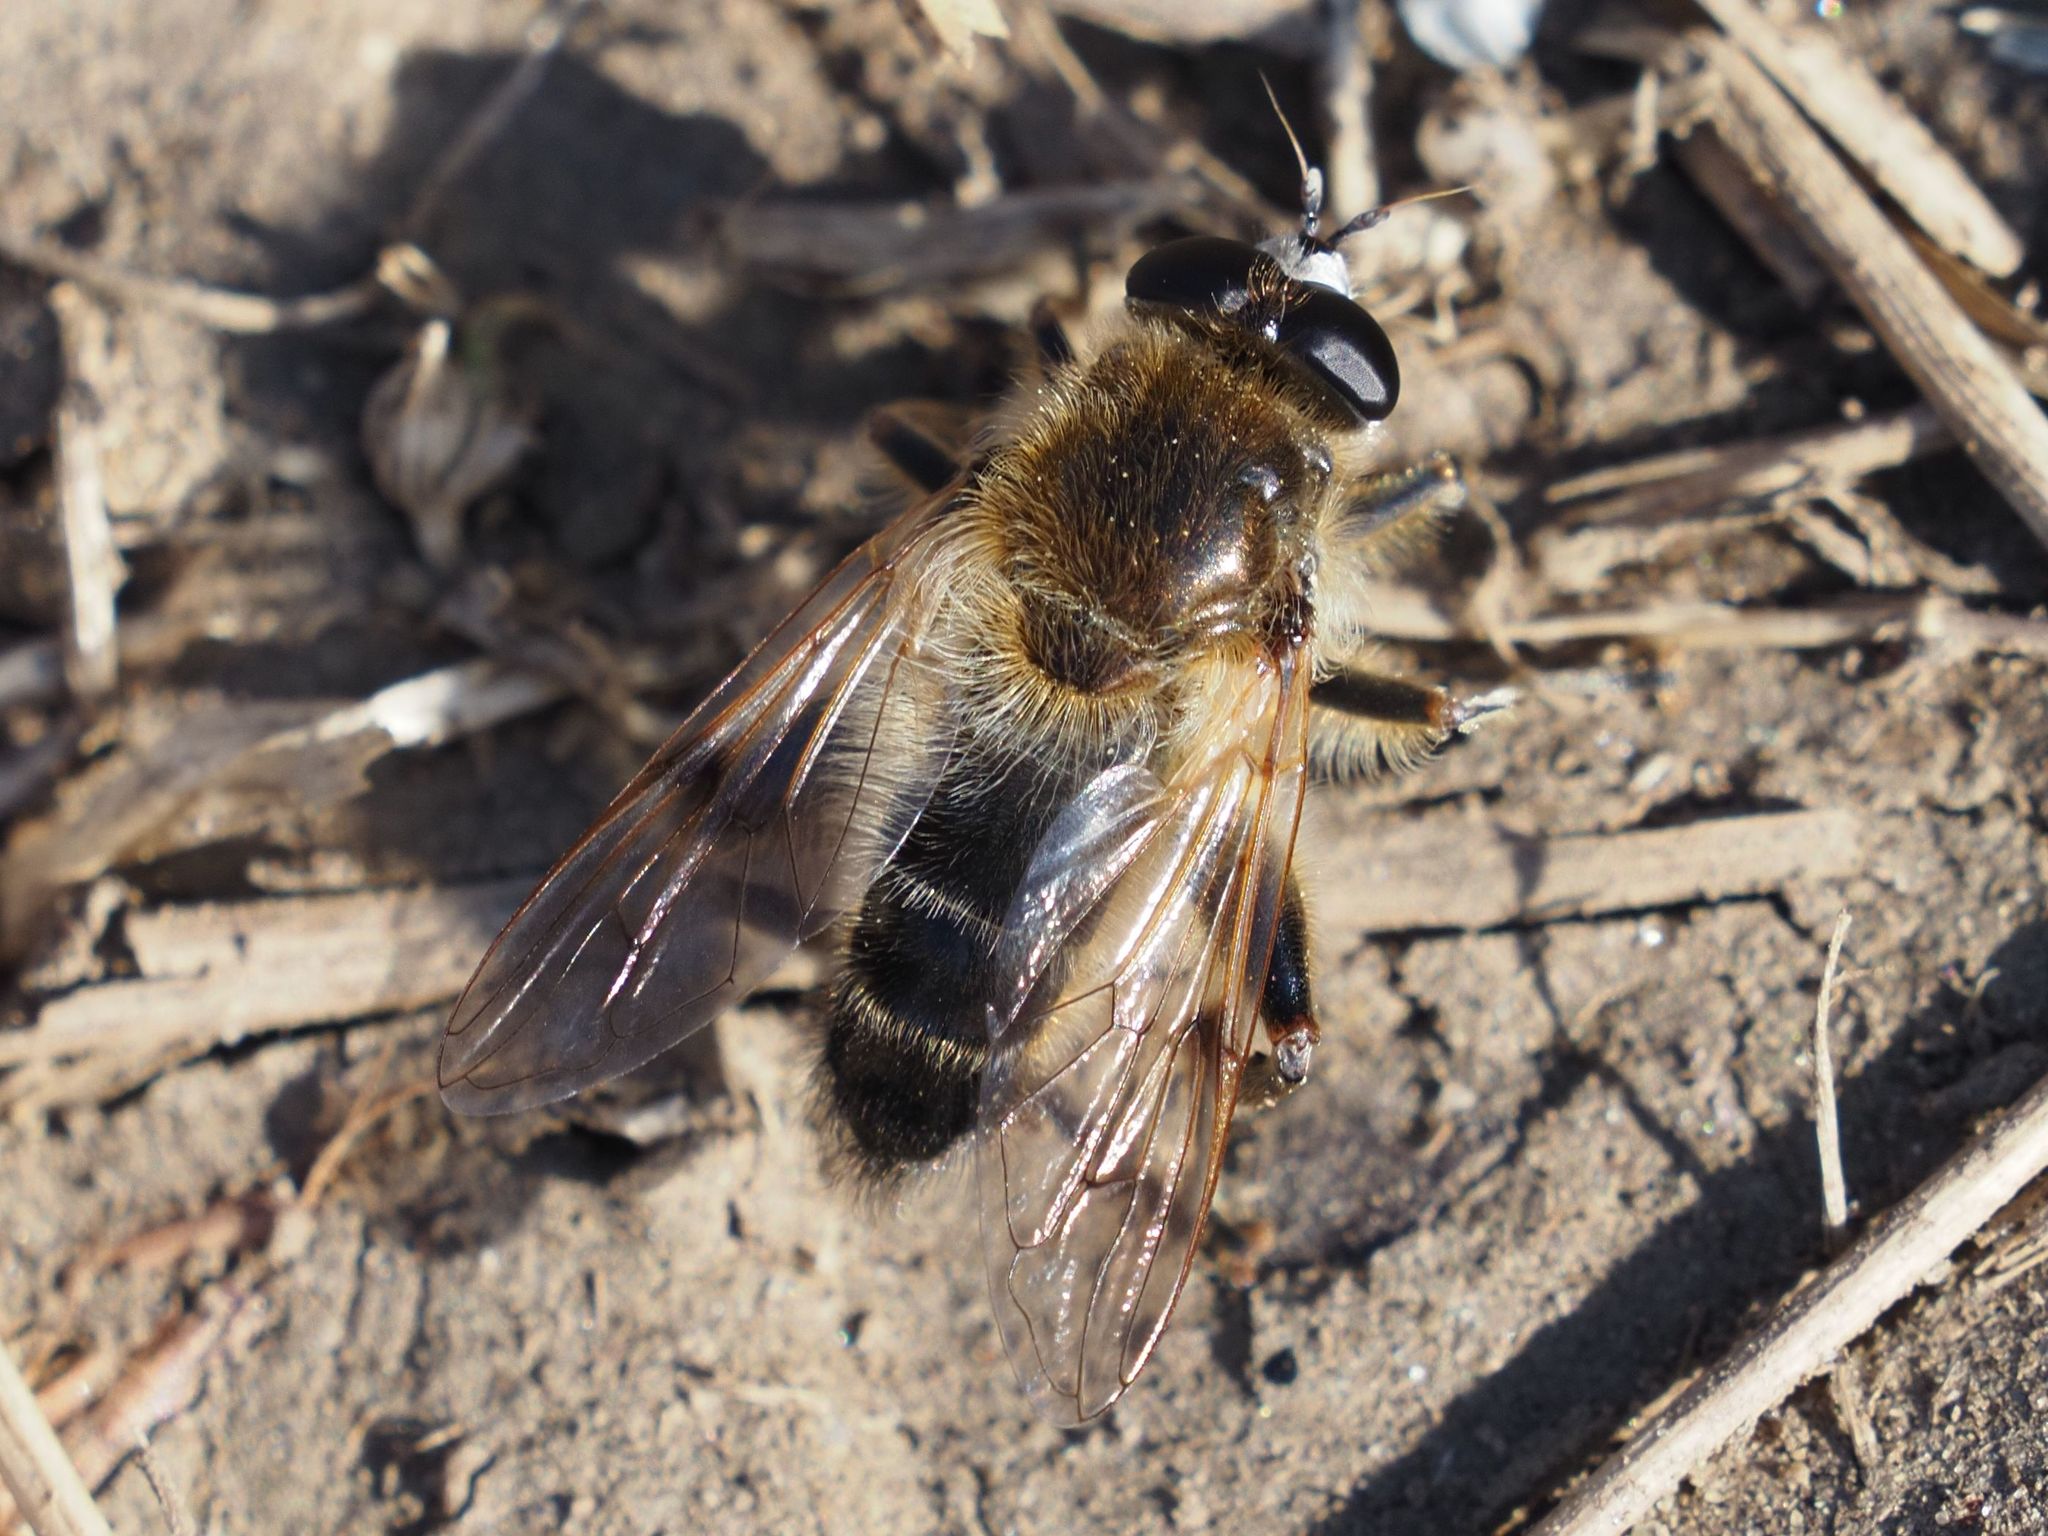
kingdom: Animalia
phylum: Arthropoda
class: Insecta
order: Diptera
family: Syrphidae
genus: Brachypalpus
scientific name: Brachypalpus valgus
